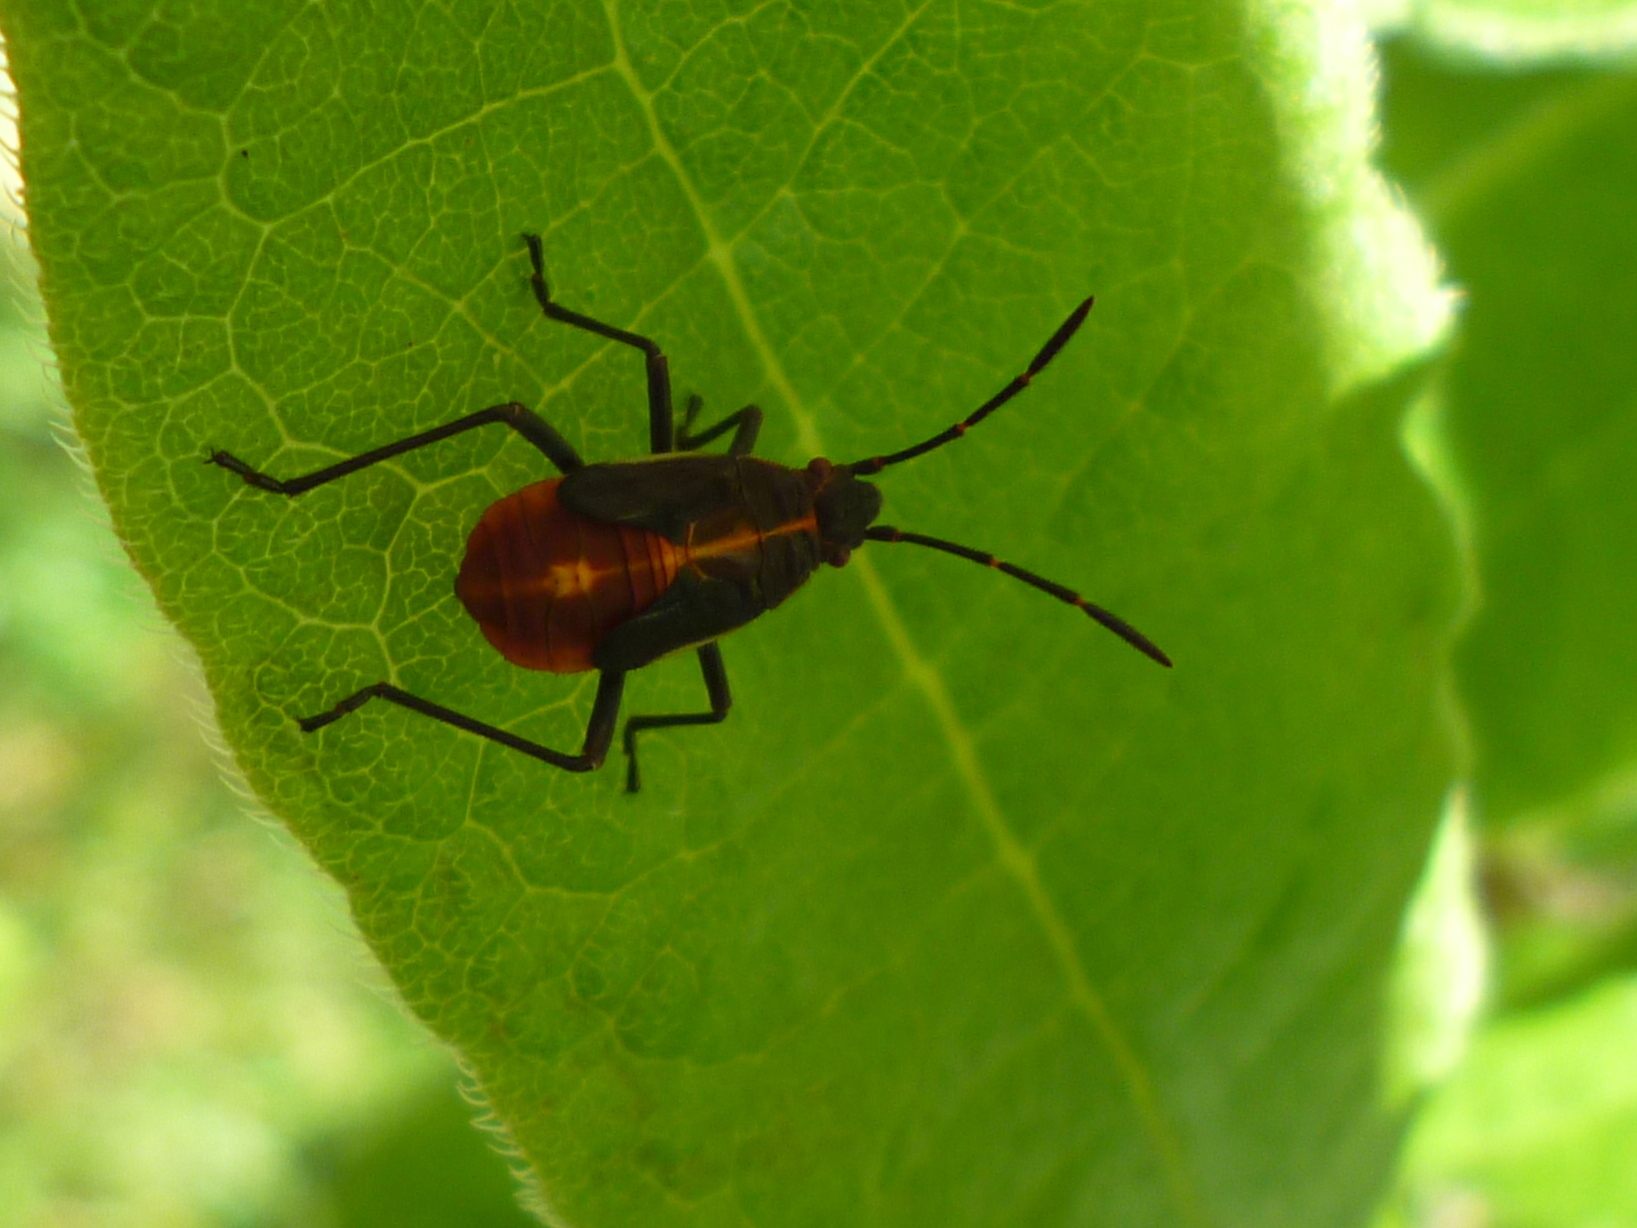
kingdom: Animalia
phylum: Arthropoda
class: Insecta
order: Hemiptera
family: Rhopalidae
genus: Boisea
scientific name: Boisea trivittata
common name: Boxelder bug
